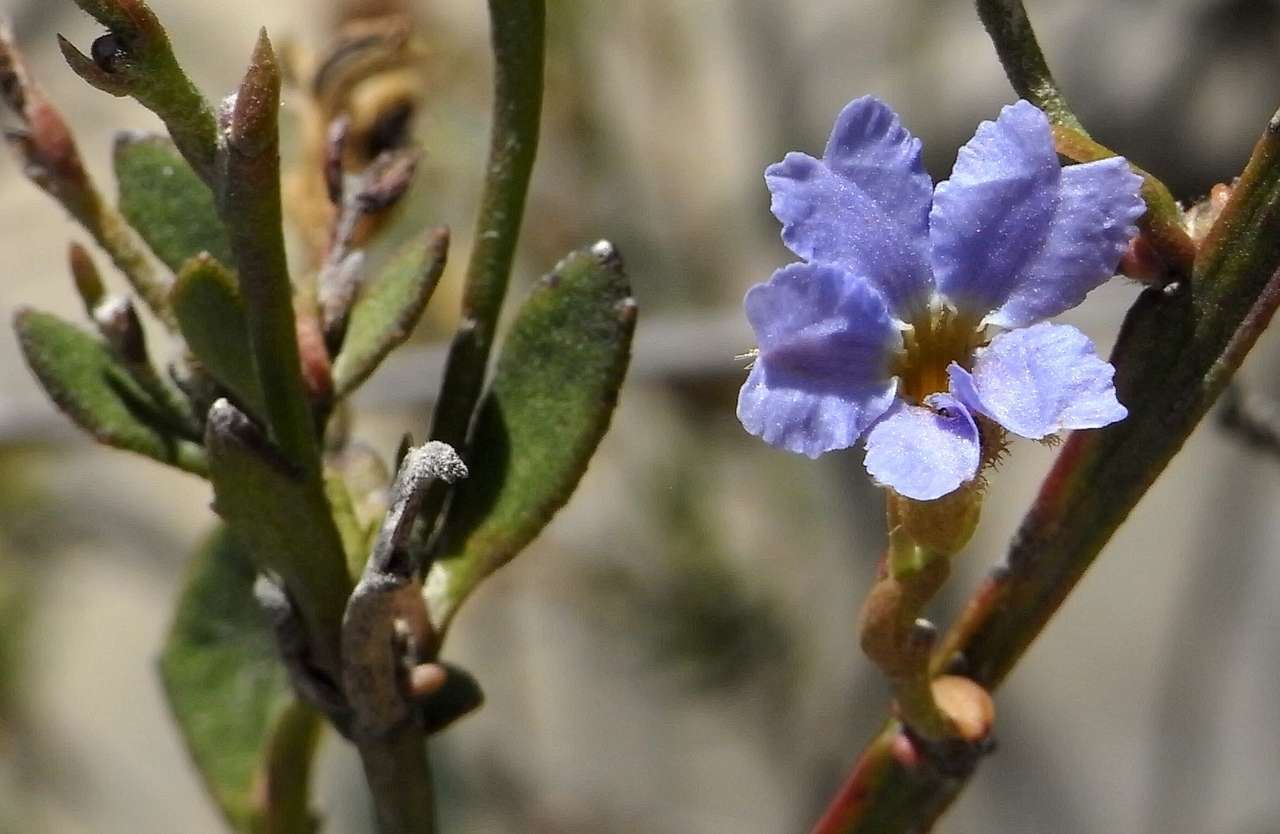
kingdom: Plantae
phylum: Tracheophyta
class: Magnoliopsida
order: Asterales
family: Goodeniaceae
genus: Dampiera
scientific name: Dampiera stricta
